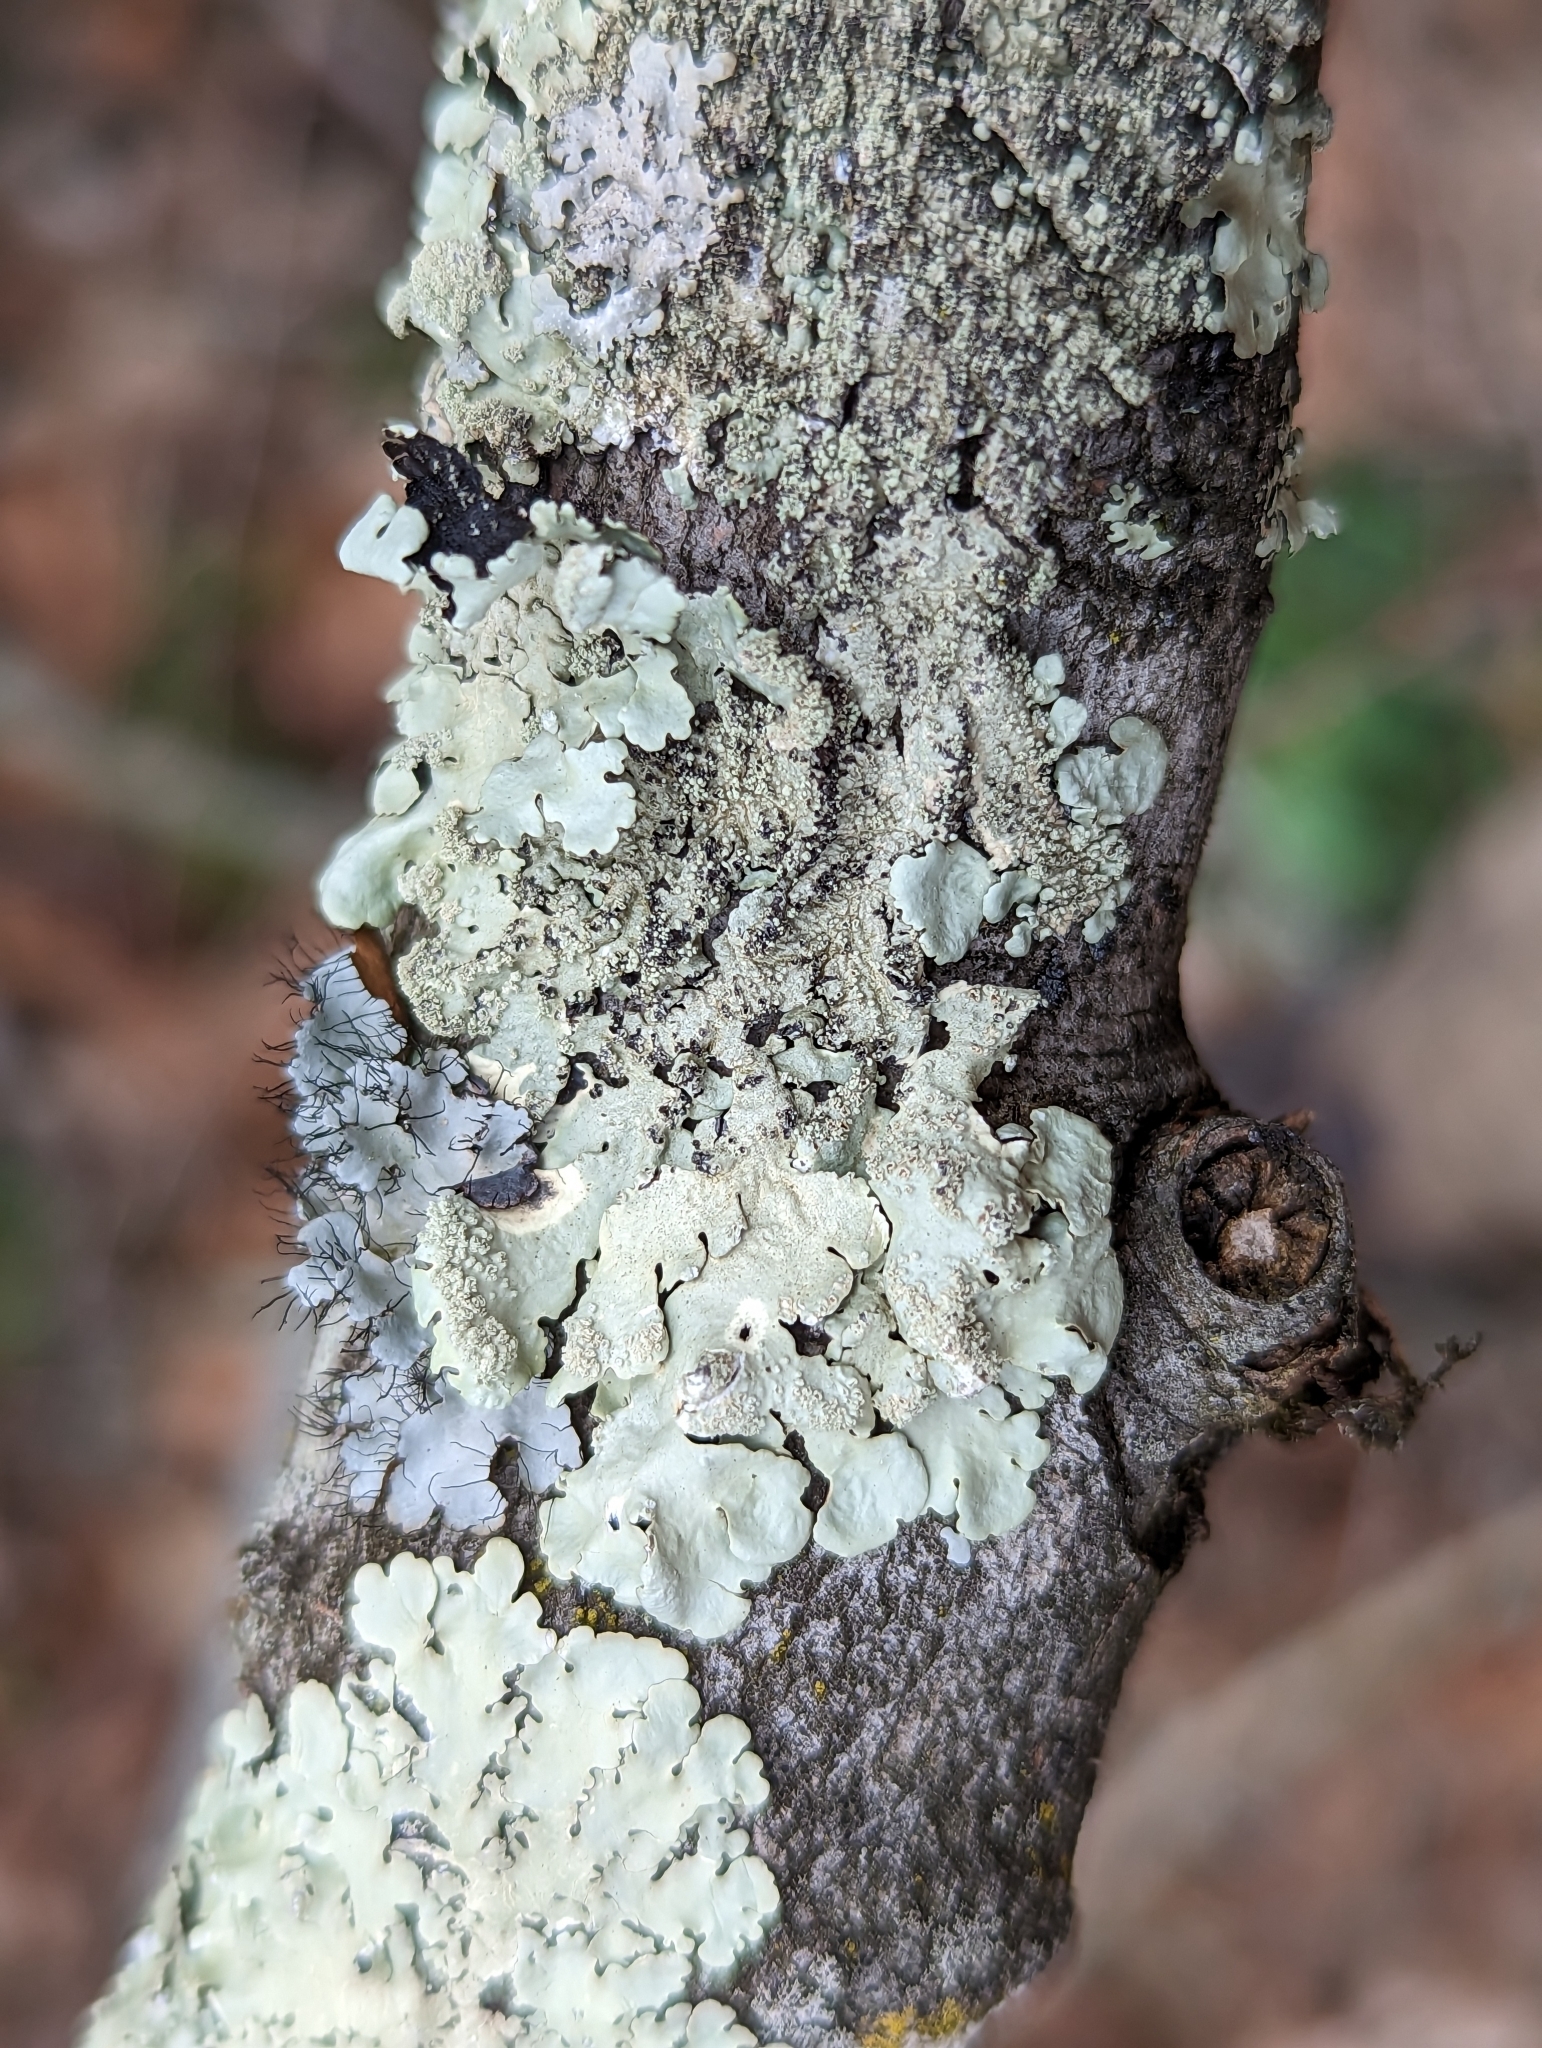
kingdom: Fungi
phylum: Ascomycota
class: Lecanoromycetes
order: Lecanorales
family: Parmeliaceae
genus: Flavoparmelia
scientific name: Flavoparmelia caperata
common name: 40-mile per hour lichen
